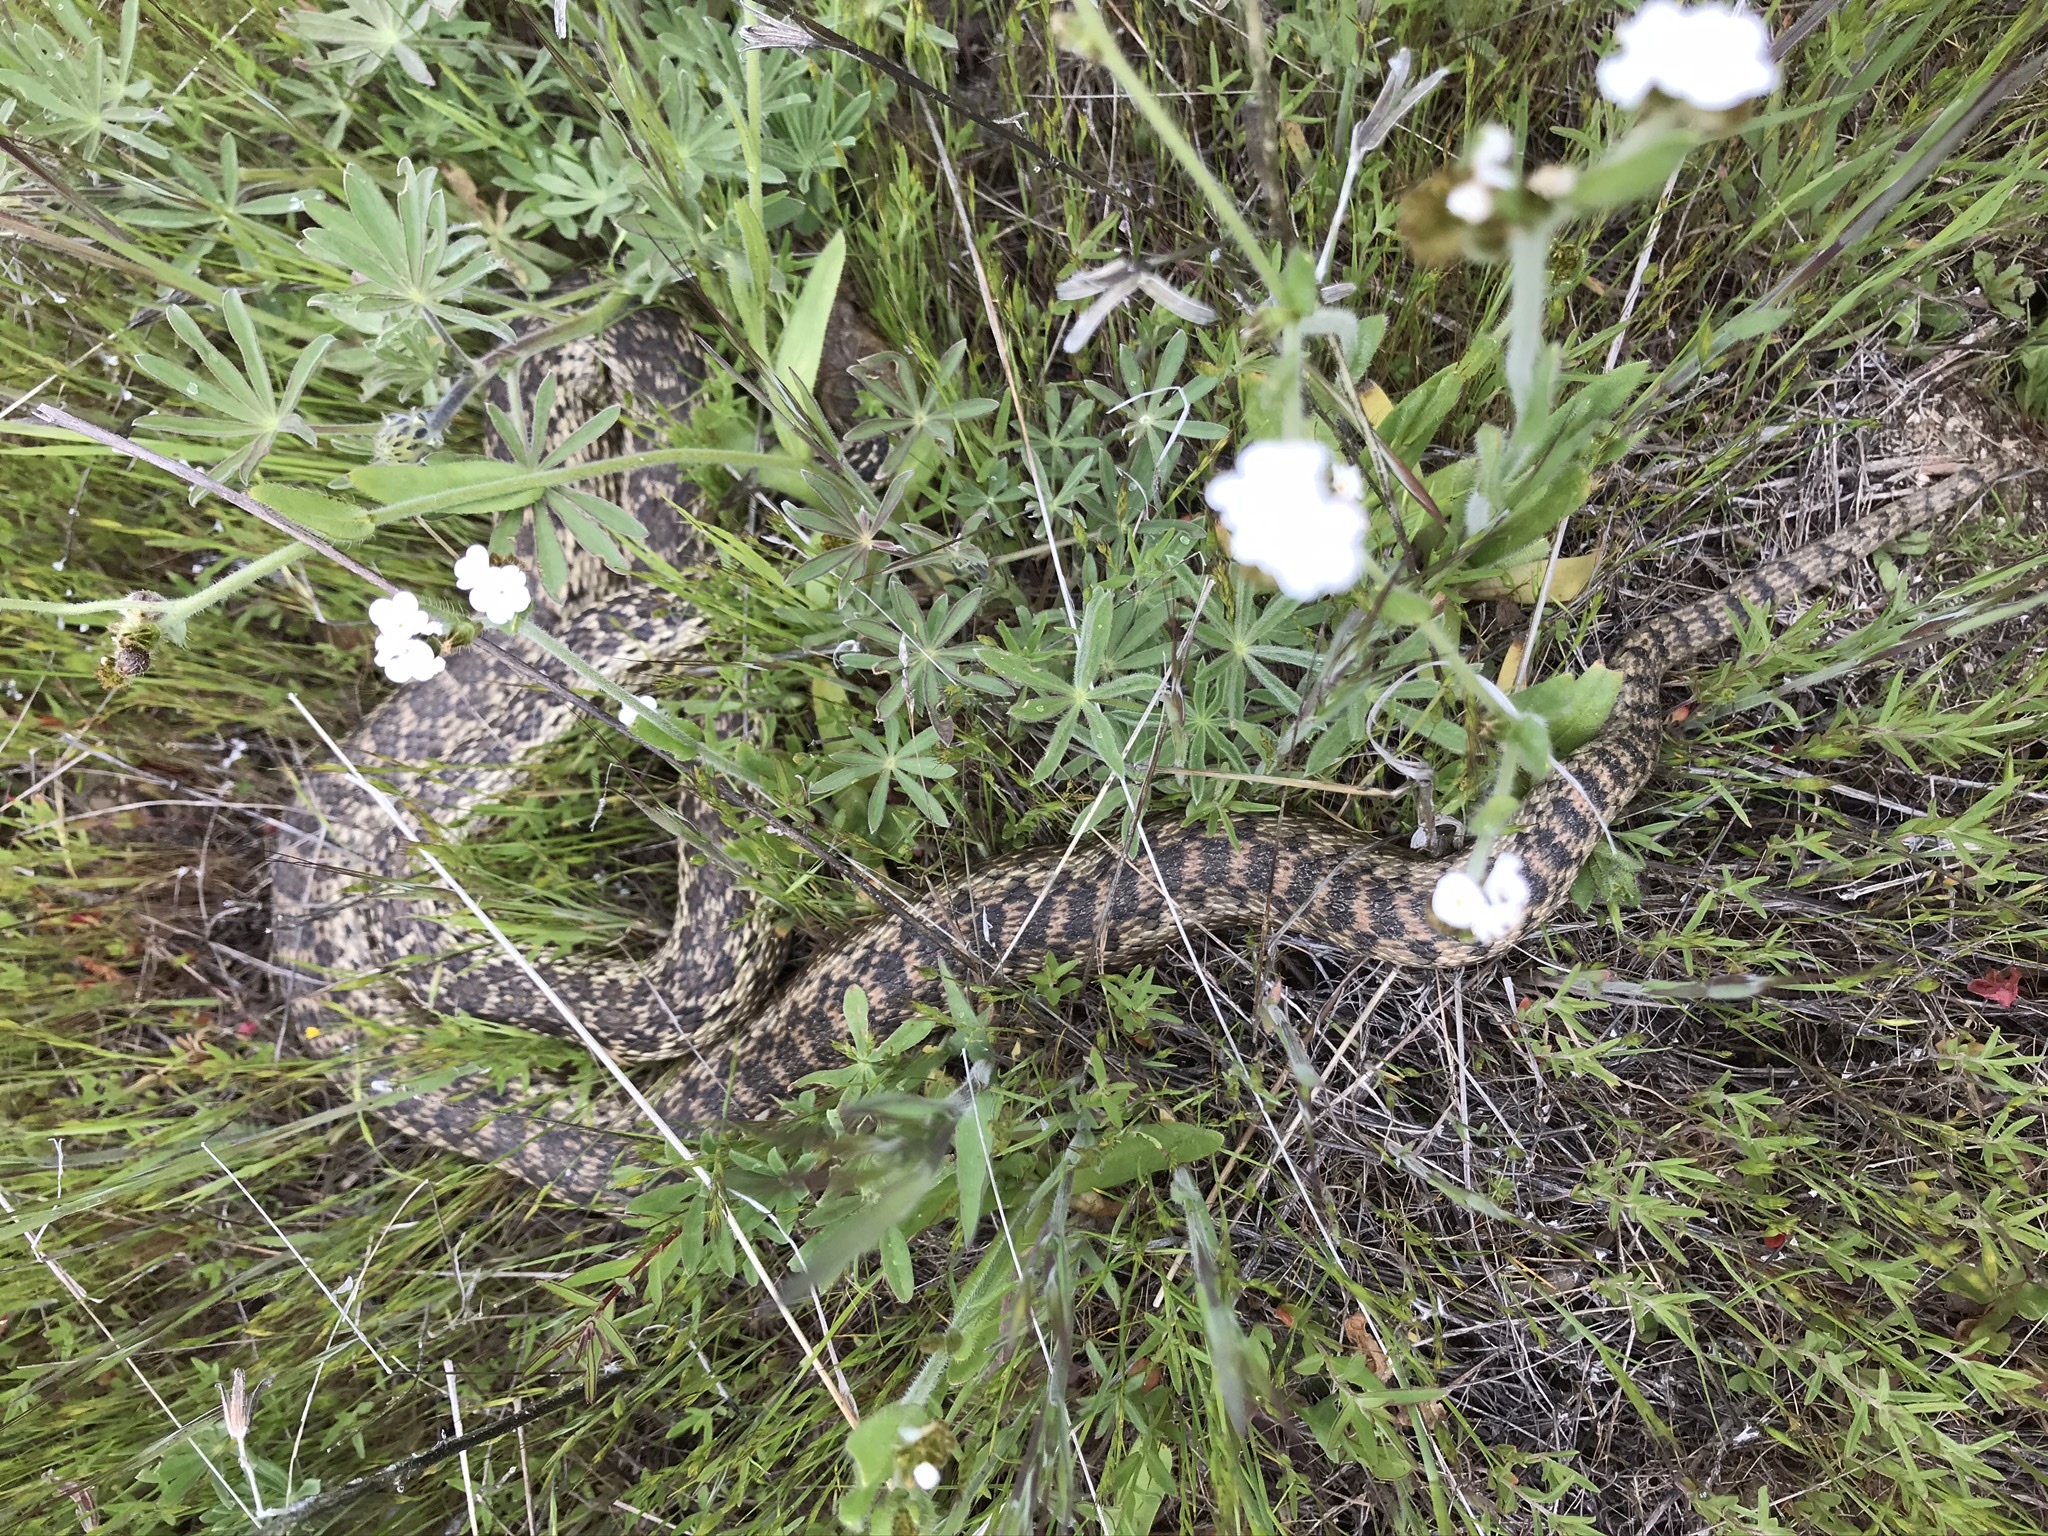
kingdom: Animalia
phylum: Chordata
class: Squamata
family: Colubridae
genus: Pituophis
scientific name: Pituophis catenifer
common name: Gopher snake
